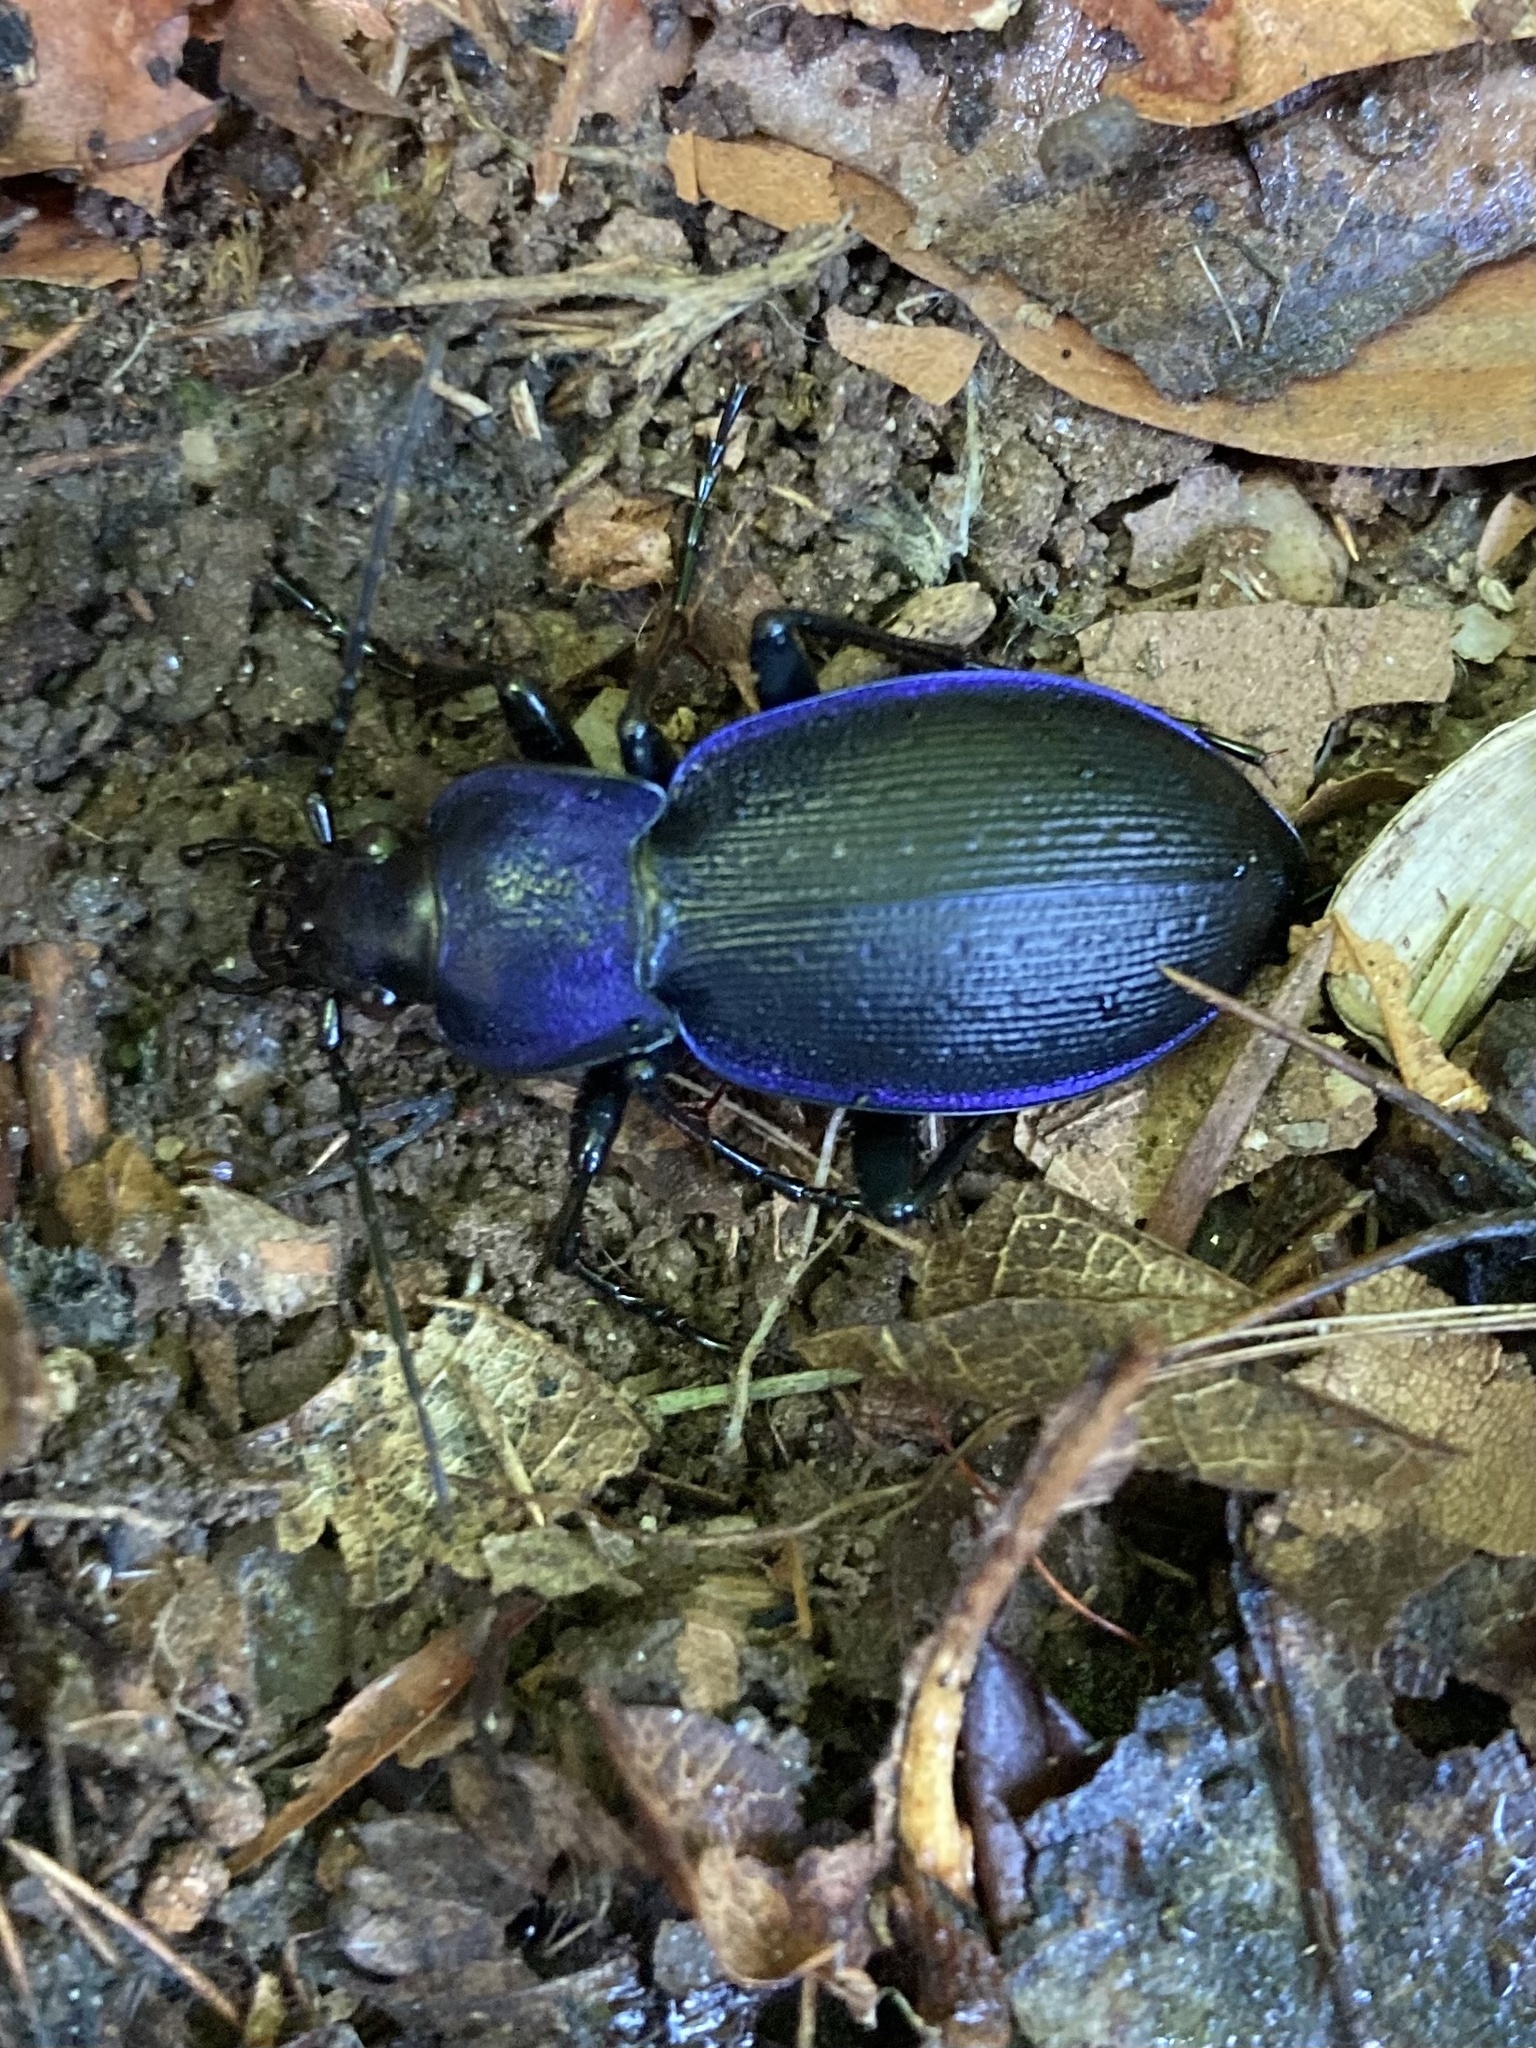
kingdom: Animalia
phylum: Arthropoda
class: Insecta
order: Coleoptera
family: Carabidae
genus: Carabus
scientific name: Carabus problematicus
